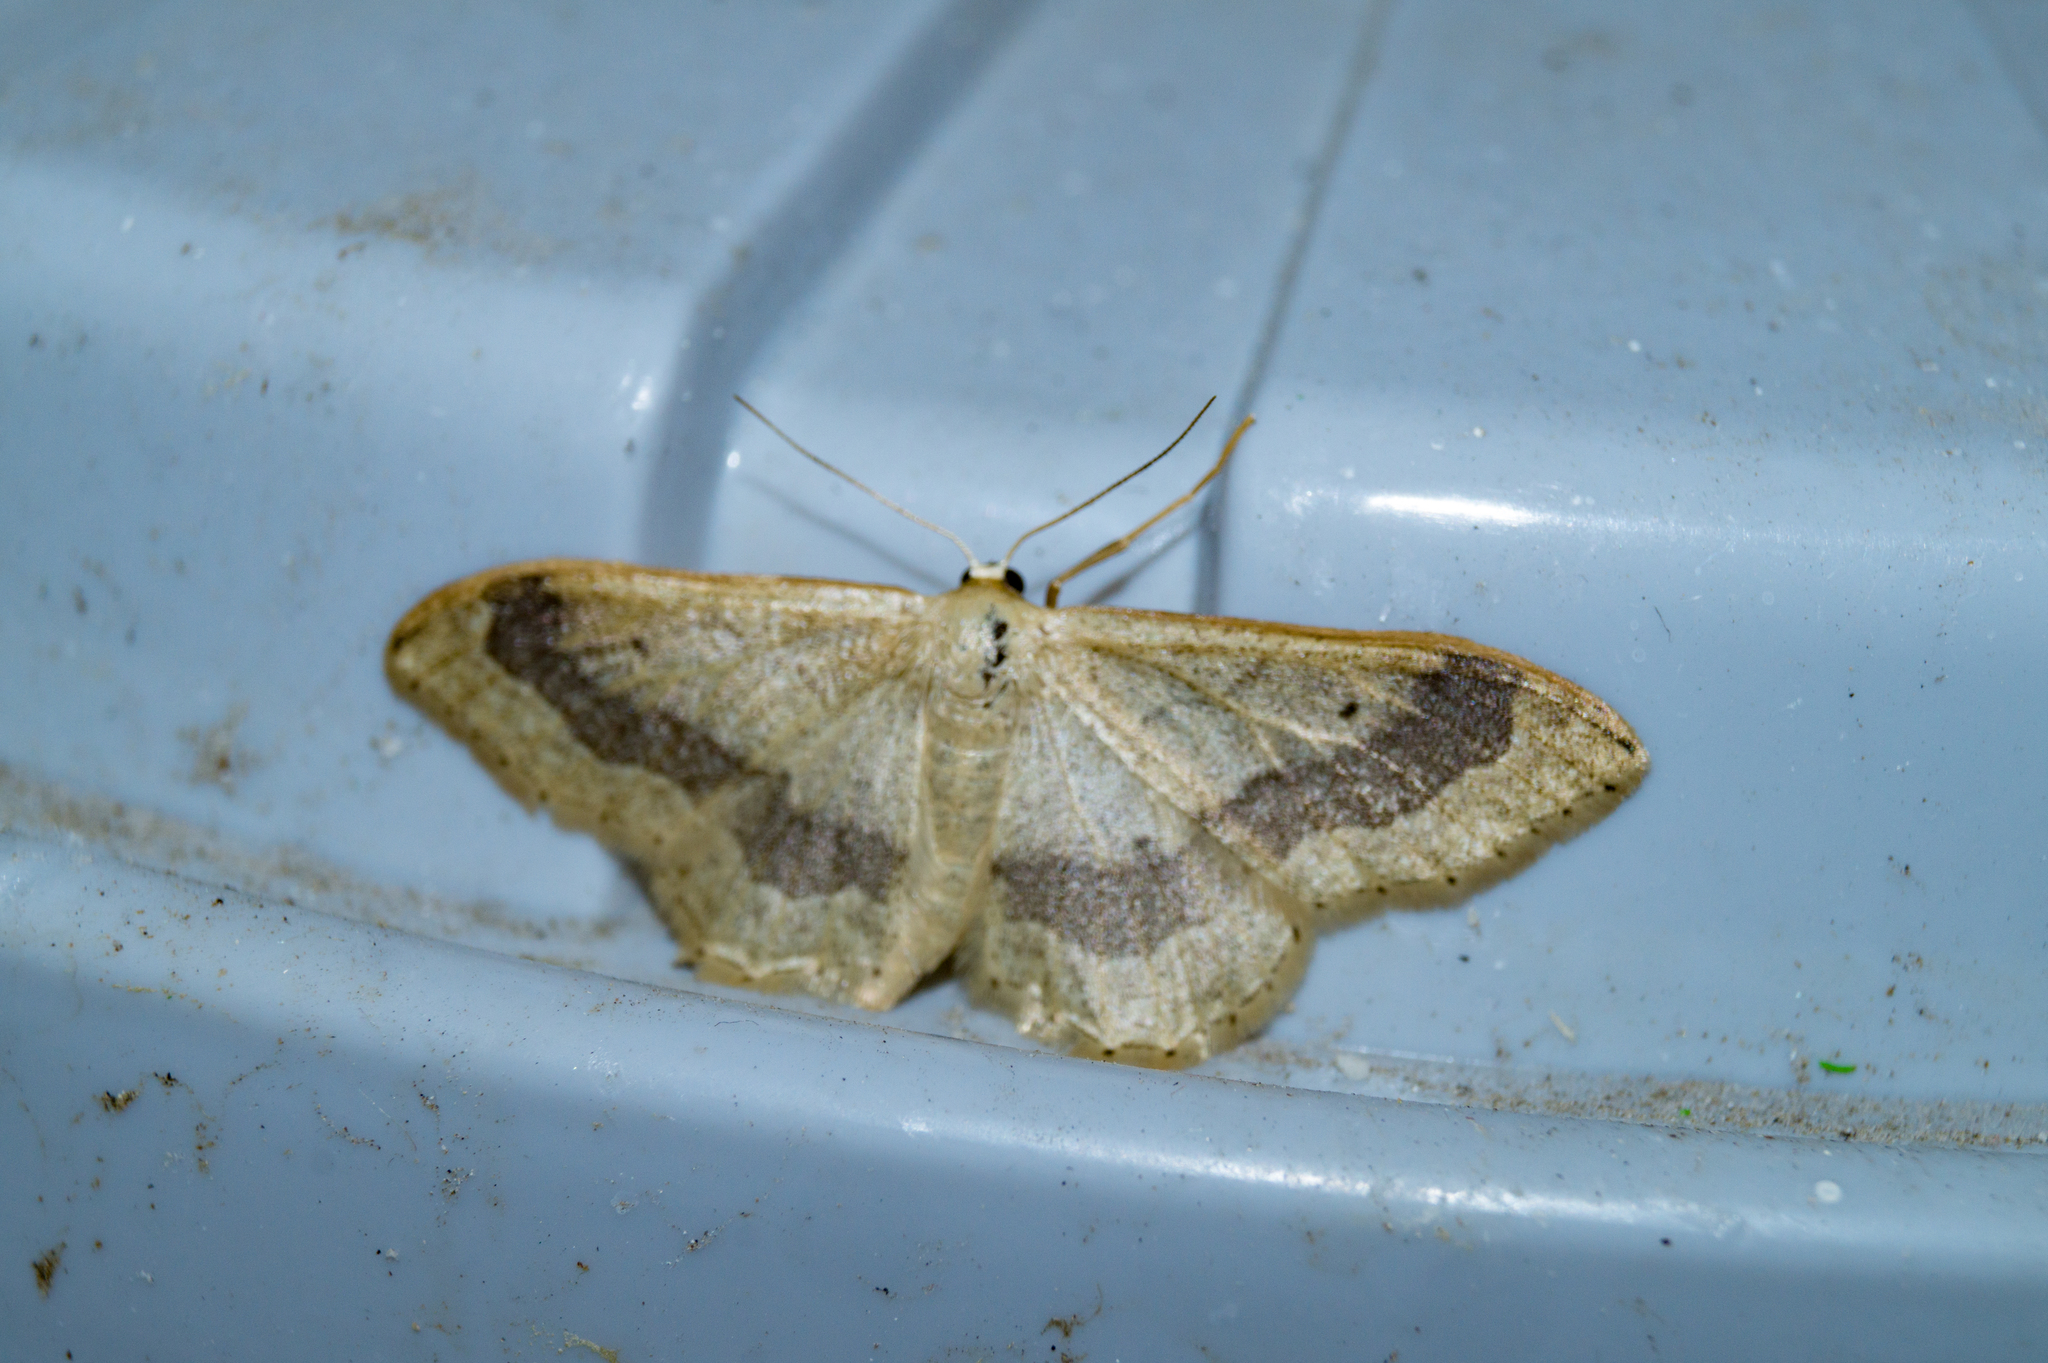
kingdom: Animalia
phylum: Arthropoda
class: Insecta
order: Lepidoptera
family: Geometridae
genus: Idaea
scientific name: Idaea aversata
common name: Riband wave
